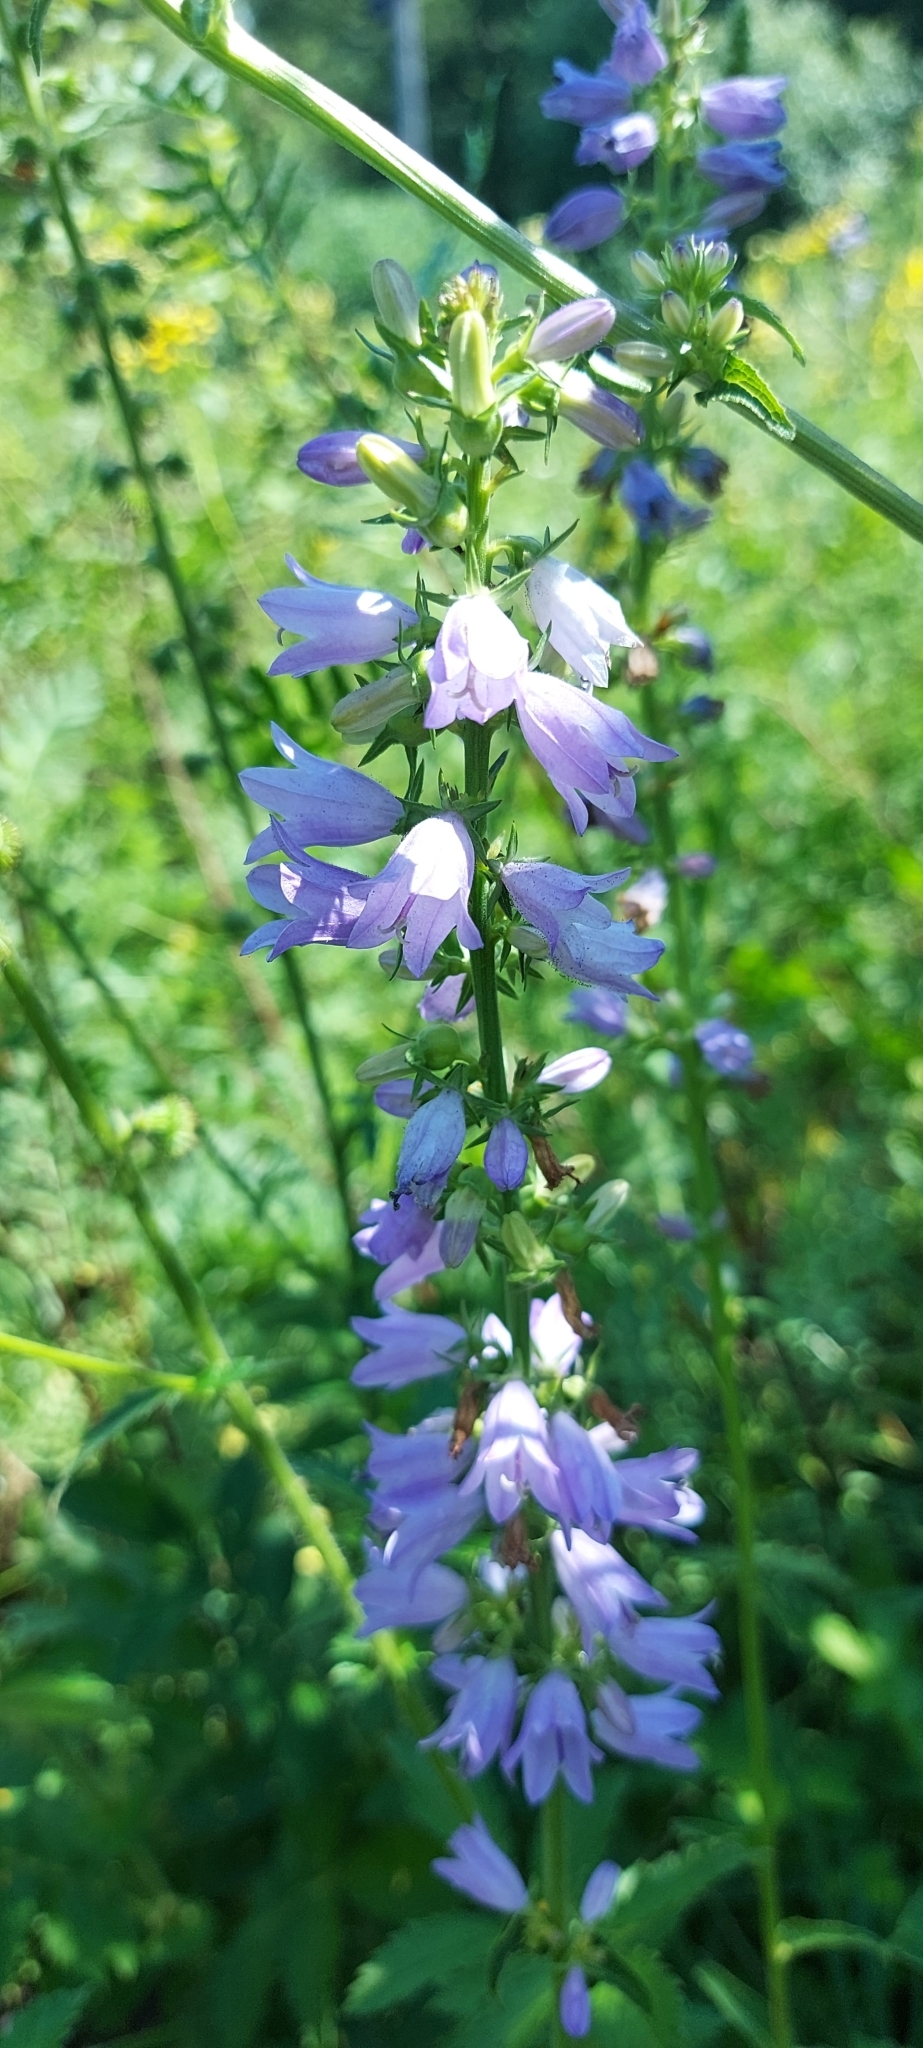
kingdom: Plantae
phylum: Tracheophyta
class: Magnoliopsida
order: Asterales
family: Campanulaceae
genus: Campanula
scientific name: Campanula bononiensis
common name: Pale bellflower
